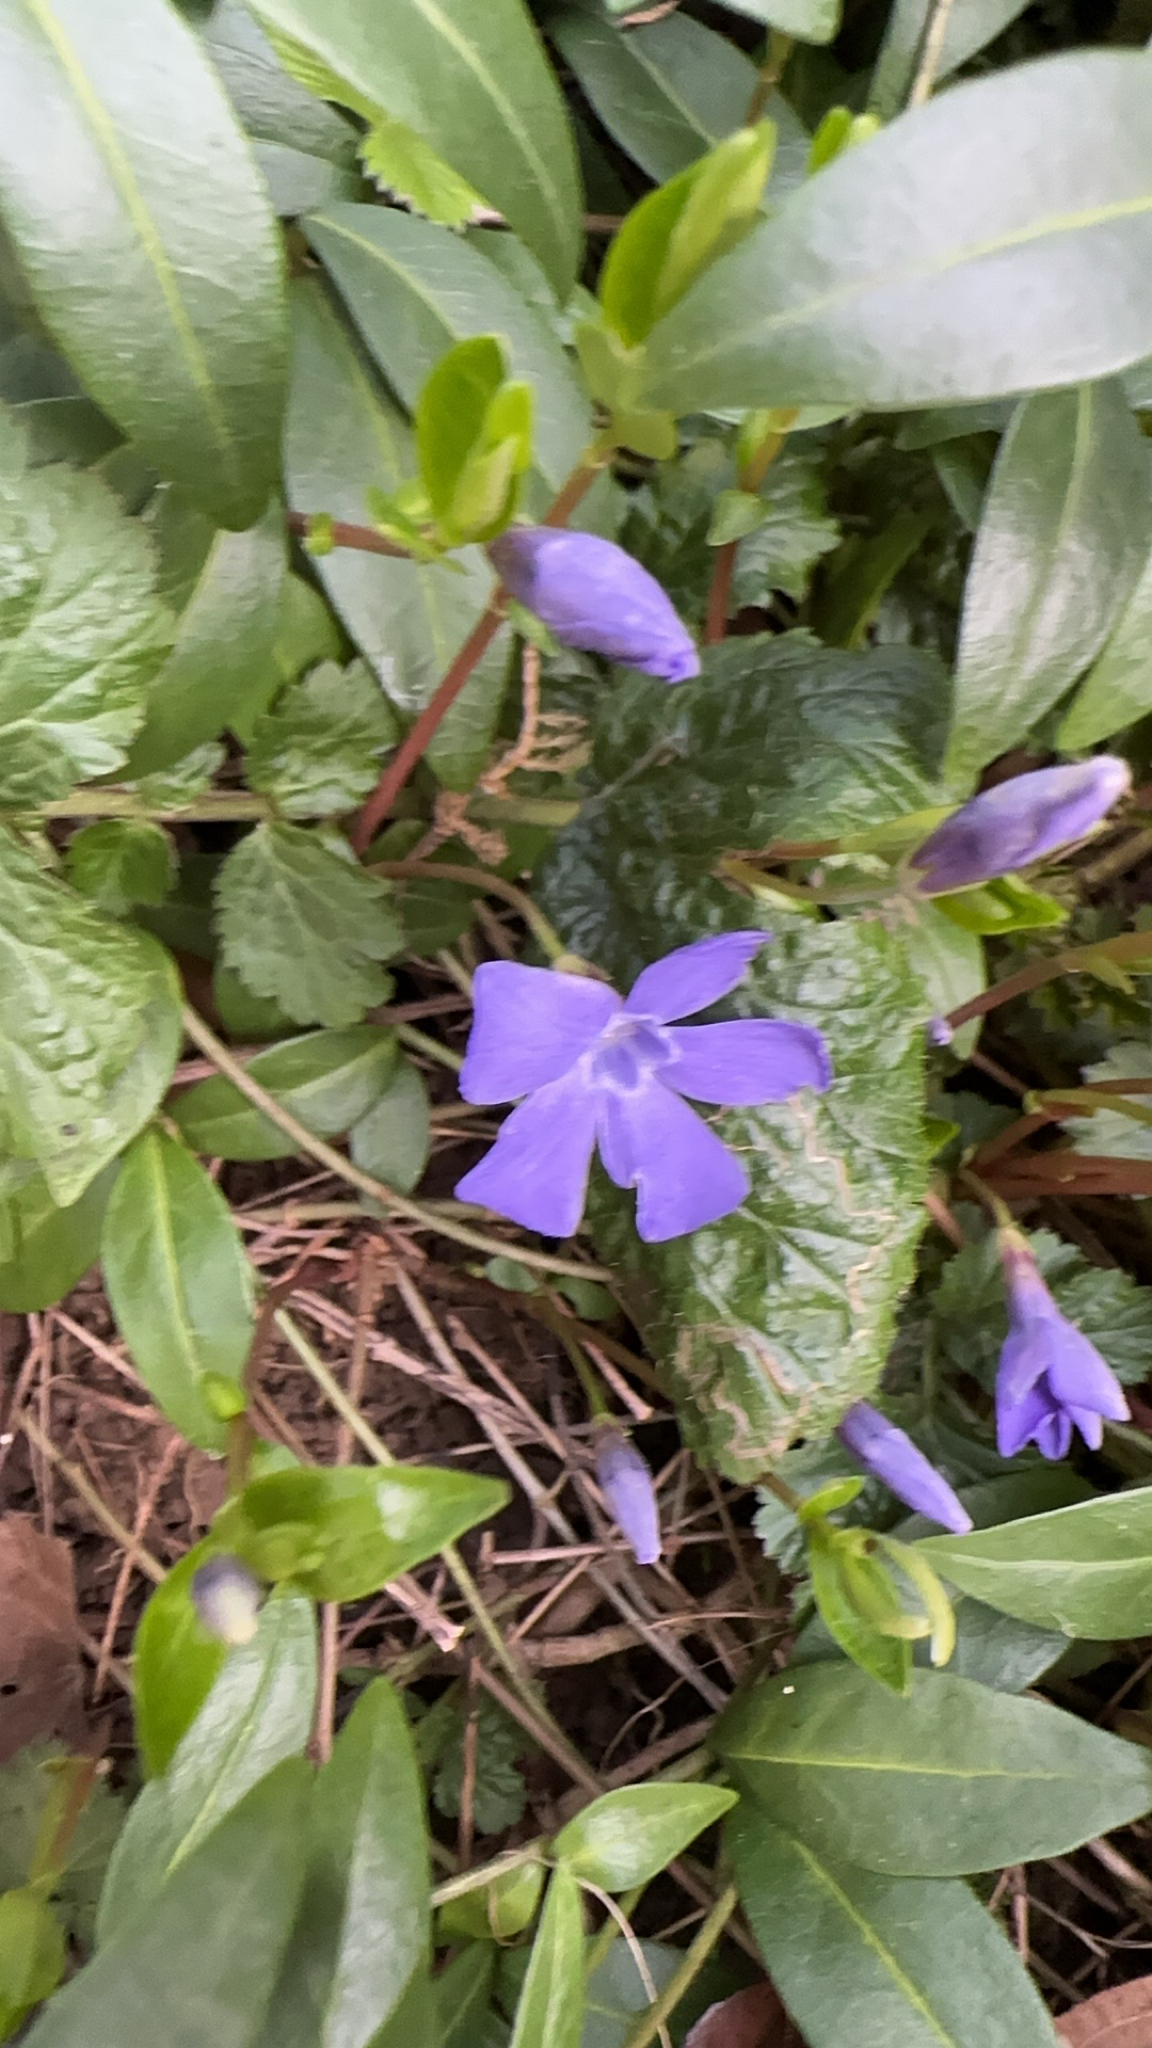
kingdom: Plantae
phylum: Tracheophyta
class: Magnoliopsida
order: Gentianales
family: Apocynaceae
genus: Vinca
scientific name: Vinca minor
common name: Lesser periwinkle
